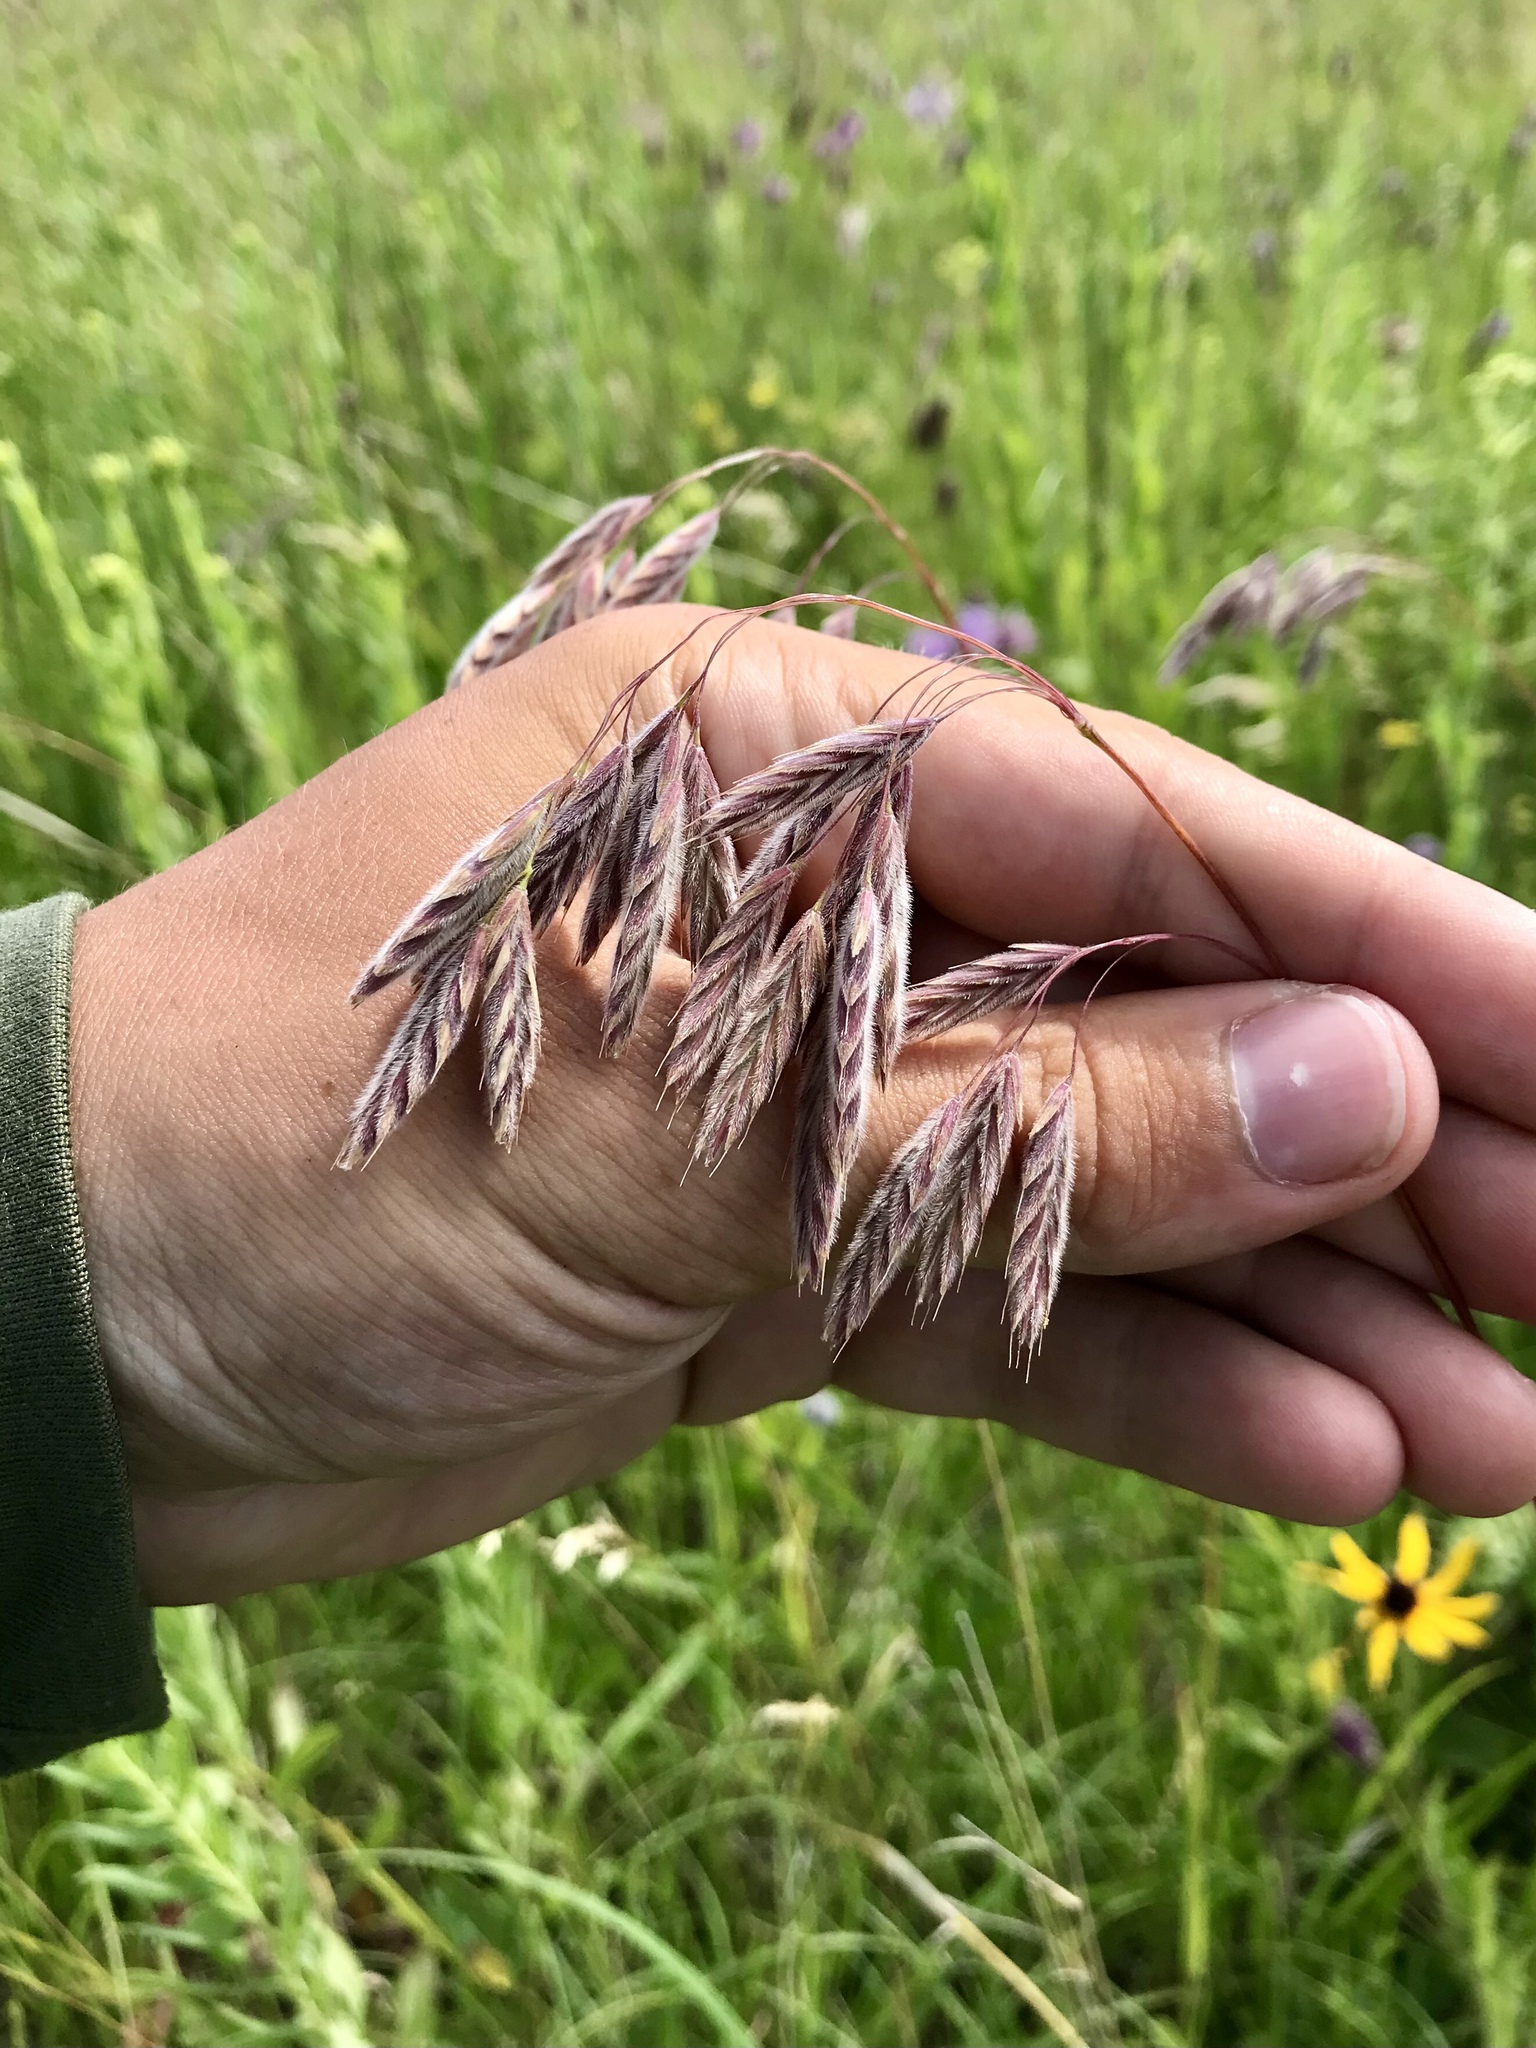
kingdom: Plantae
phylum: Tracheophyta
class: Liliopsida
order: Poales
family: Poaceae
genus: Bromus
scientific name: Bromus kalmii
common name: Kalm brome
